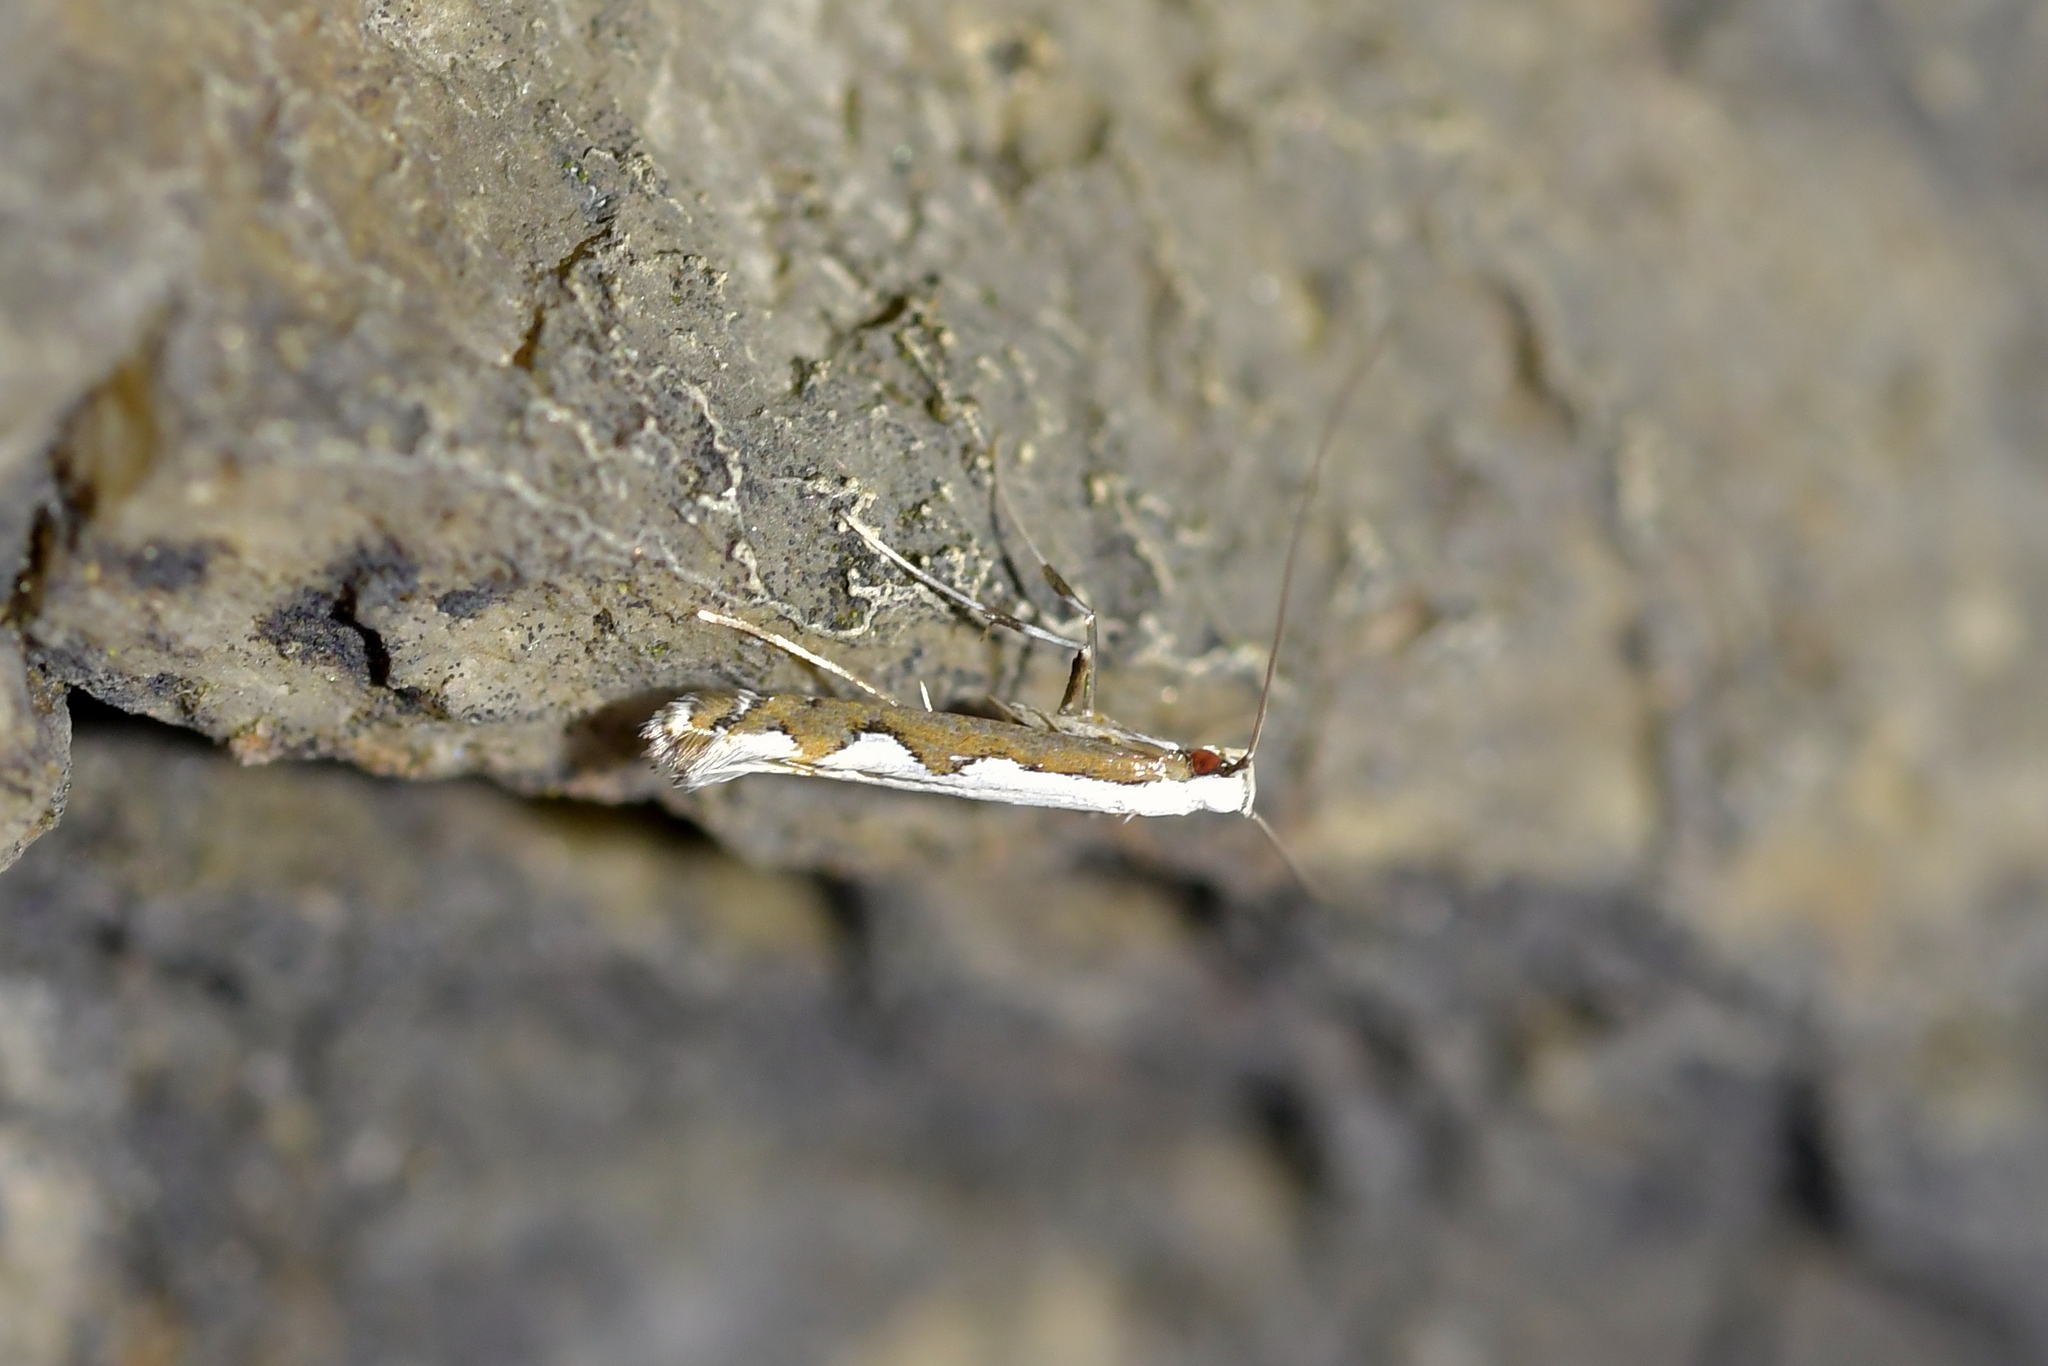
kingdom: Animalia
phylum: Arthropoda
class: Insecta
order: Lepidoptera
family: Gracillariidae
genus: Dialectica
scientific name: Dialectica scalariella
